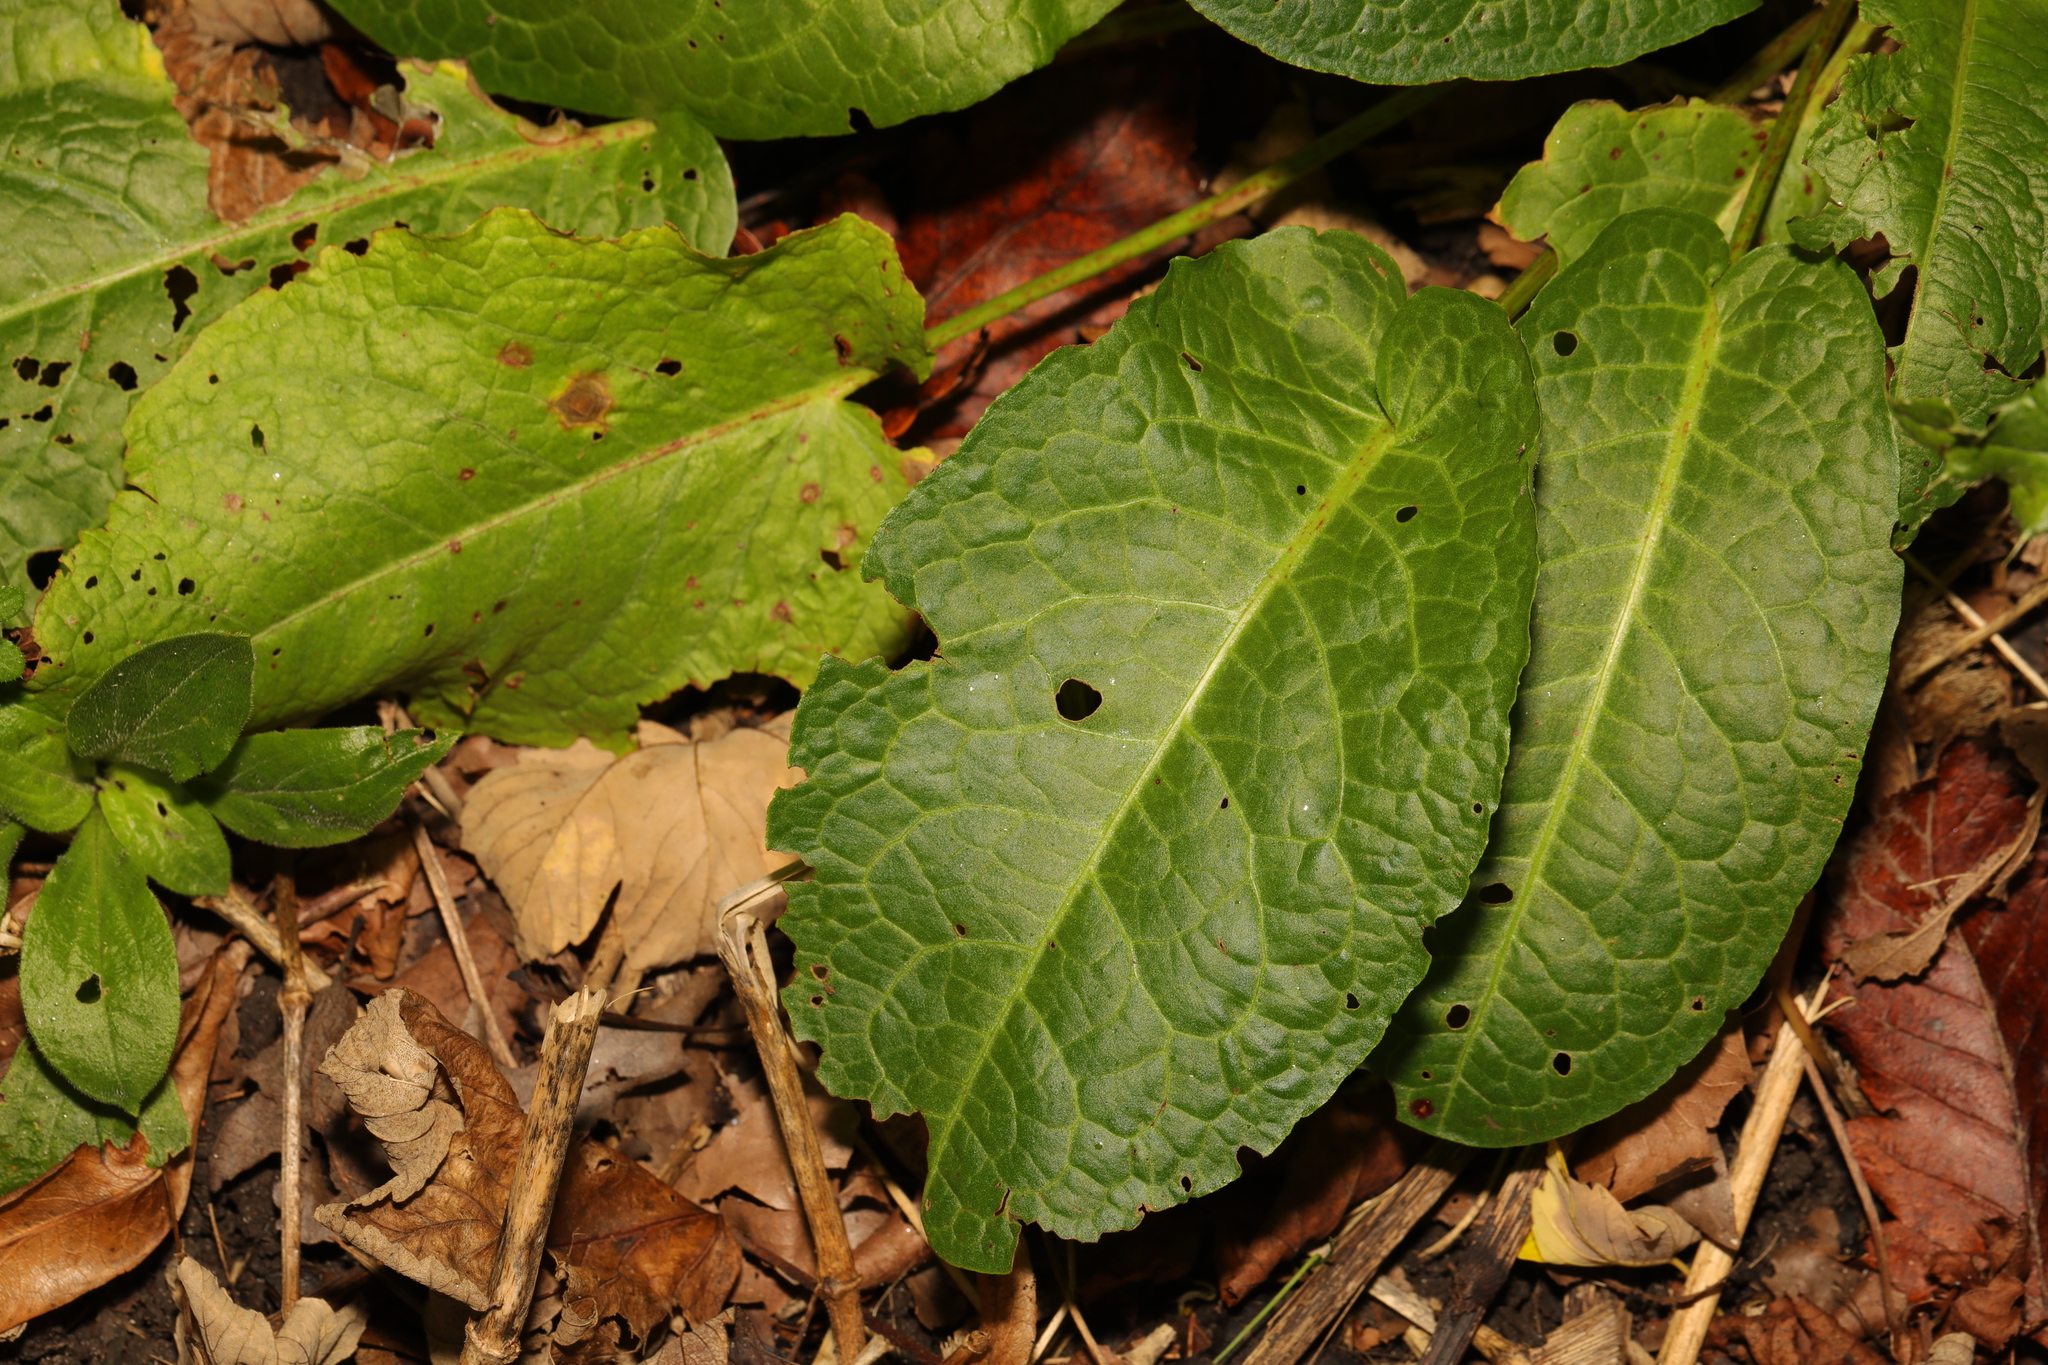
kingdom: Plantae
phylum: Tracheophyta
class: Magnoliopsida
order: Caryophyllales
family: Polygonaceae
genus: Rumex
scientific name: Rumex obtusifolius
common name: Bitter dock
